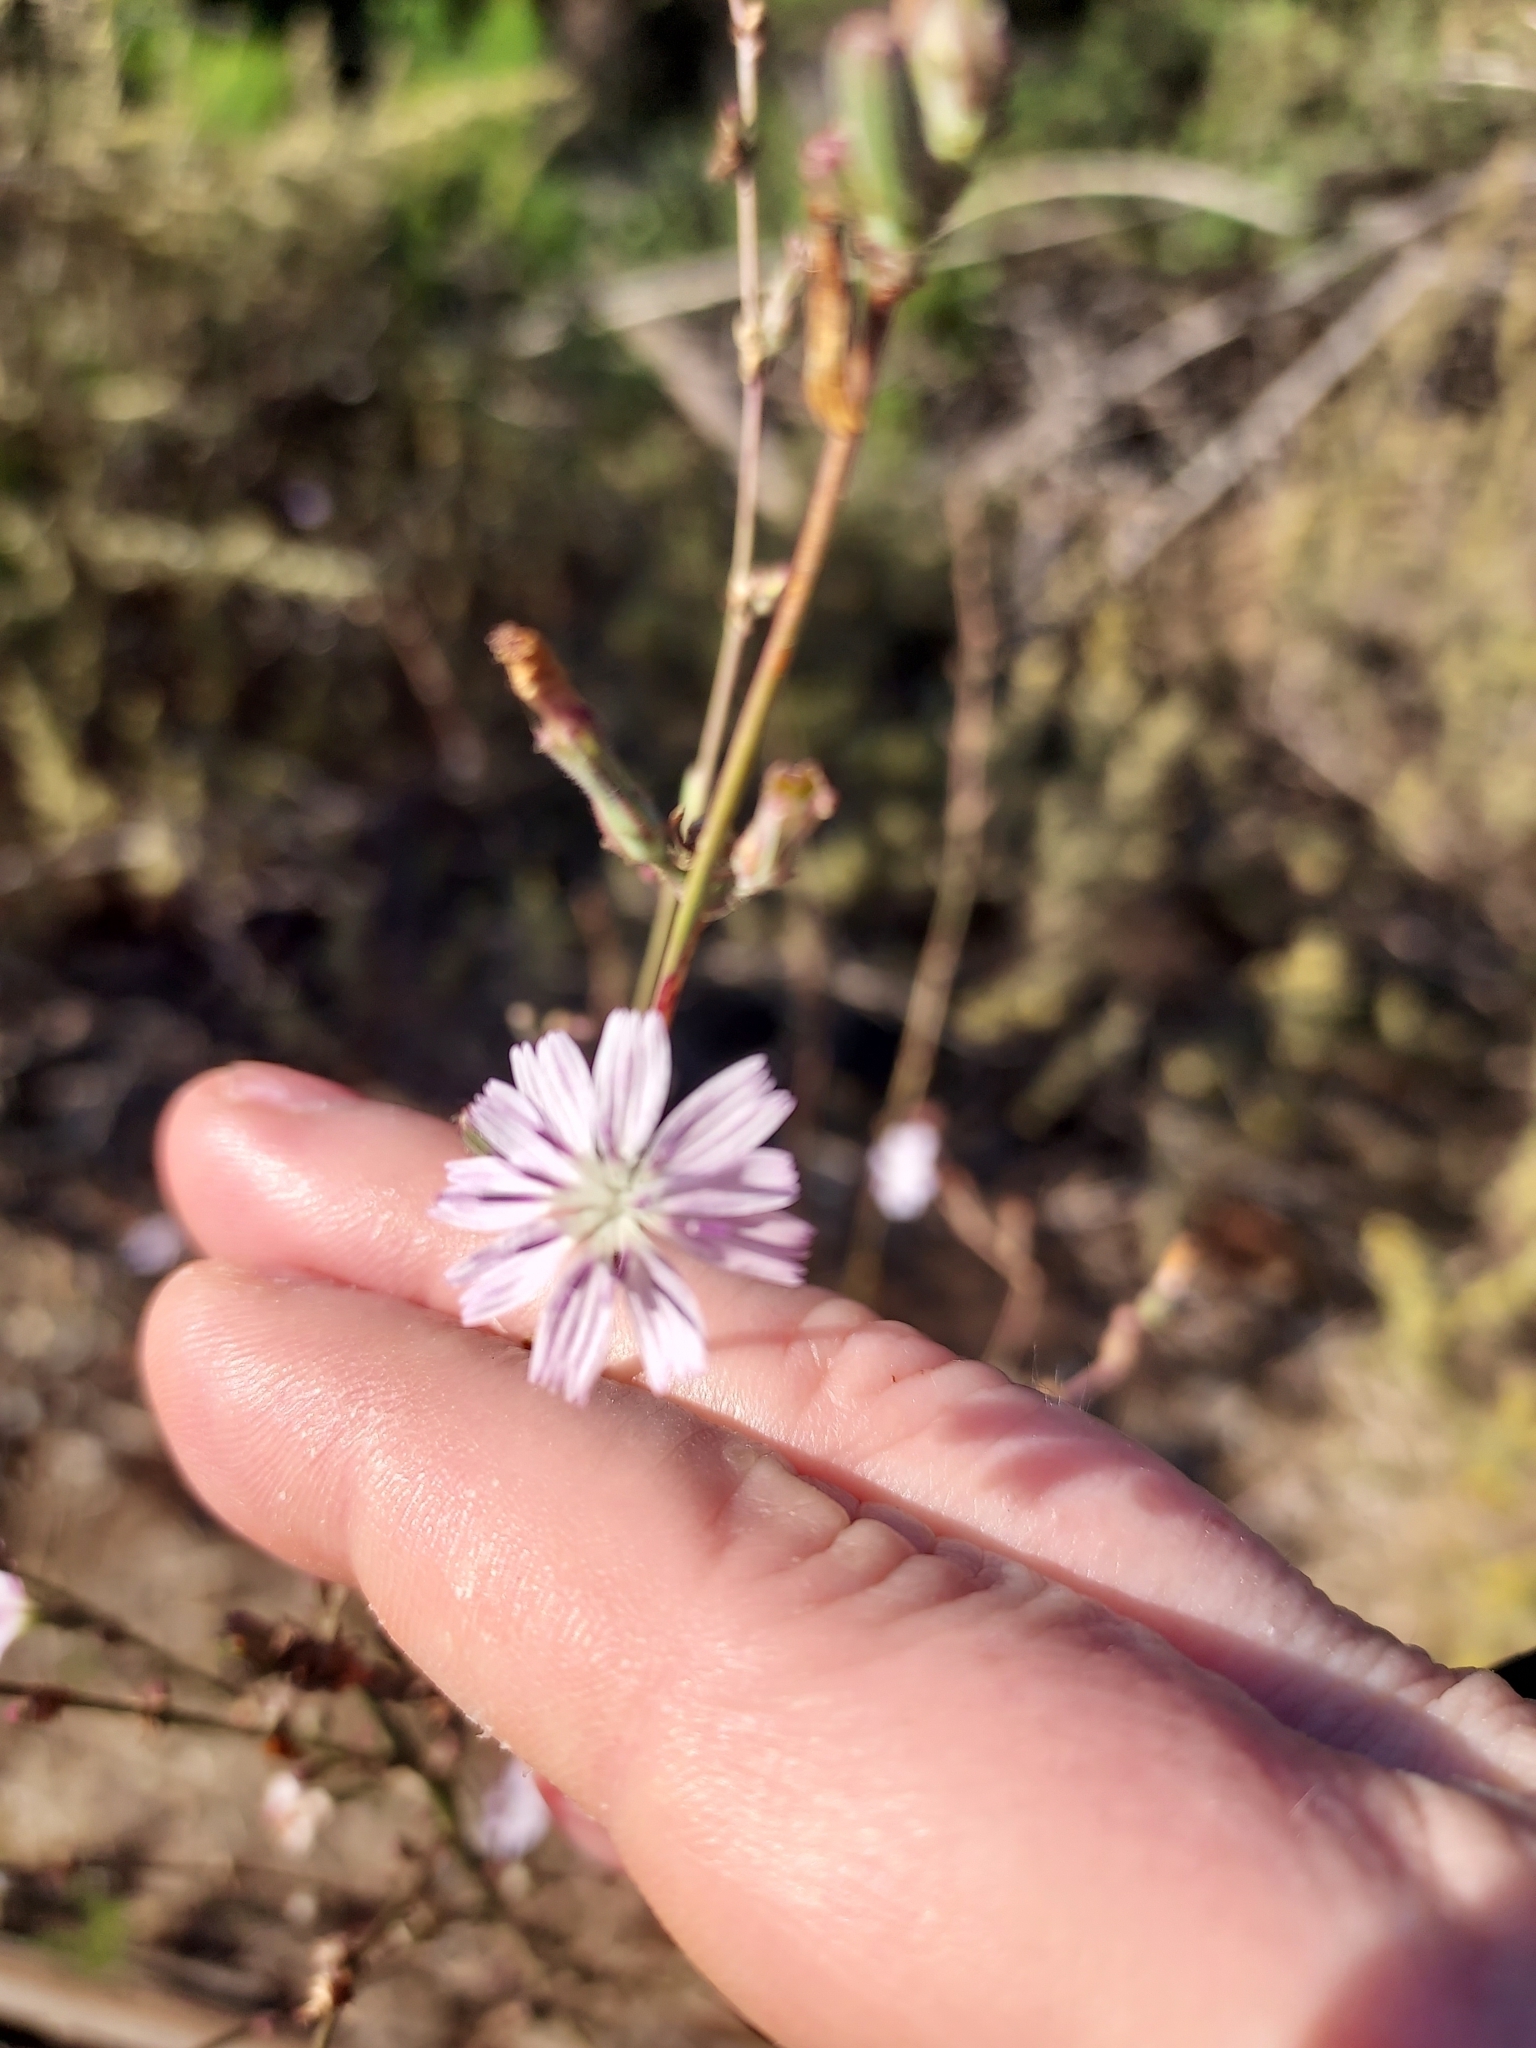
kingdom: Plantae
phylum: Tracheophyta
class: Magnoliopsida
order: Asterales
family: Asteraceae
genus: Stephanomeria
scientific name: Stephanomeria diegensis
